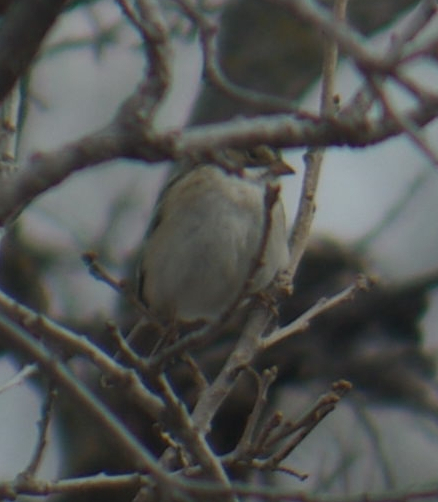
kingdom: Animalia
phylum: Chordata
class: Aves
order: Passeriformes
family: Passerellidae
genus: Spizella
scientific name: Spizella pallida
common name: Clay-colored sparrow
